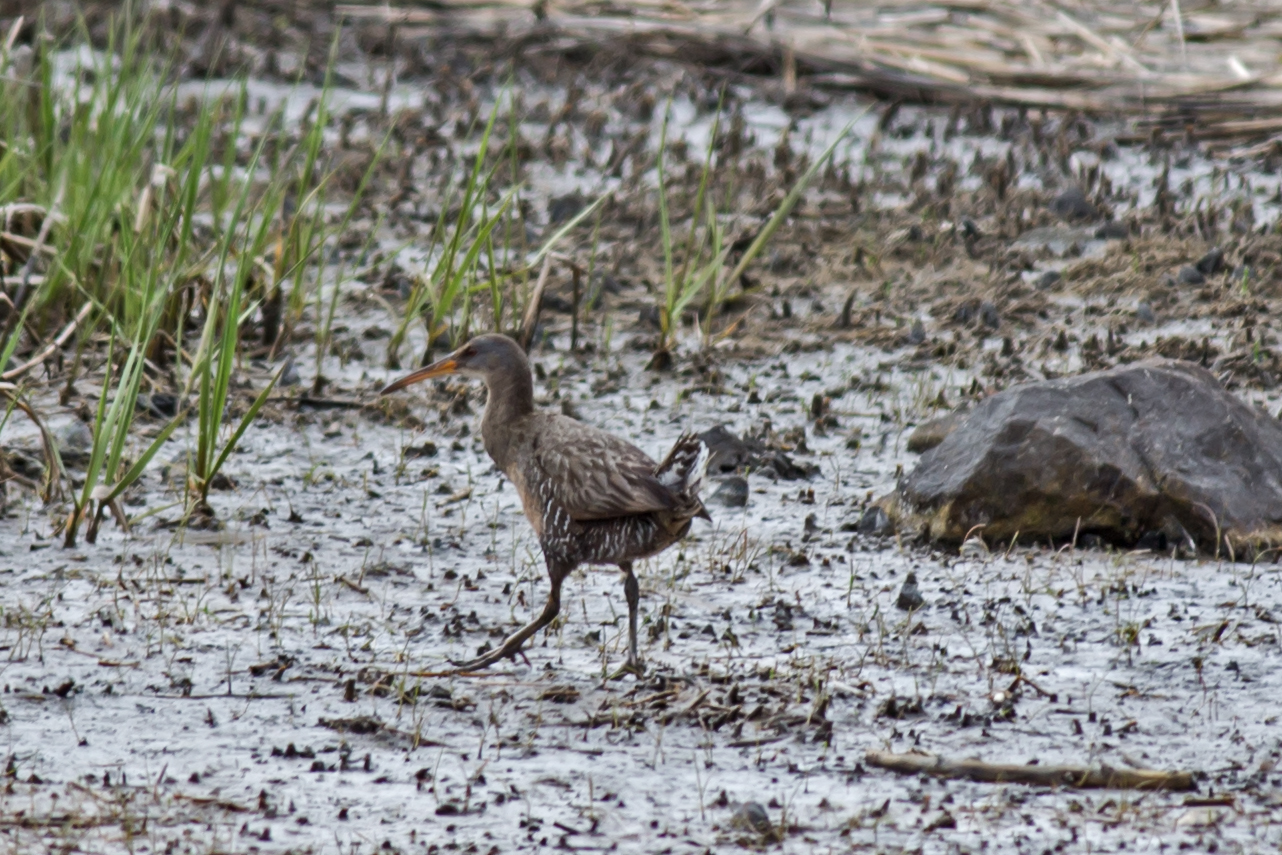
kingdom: Animalia
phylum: Chordata
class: Aves
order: Gruiformes
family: Rallidae
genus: Rallus
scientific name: Rallus crepitans
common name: Clapper rail
